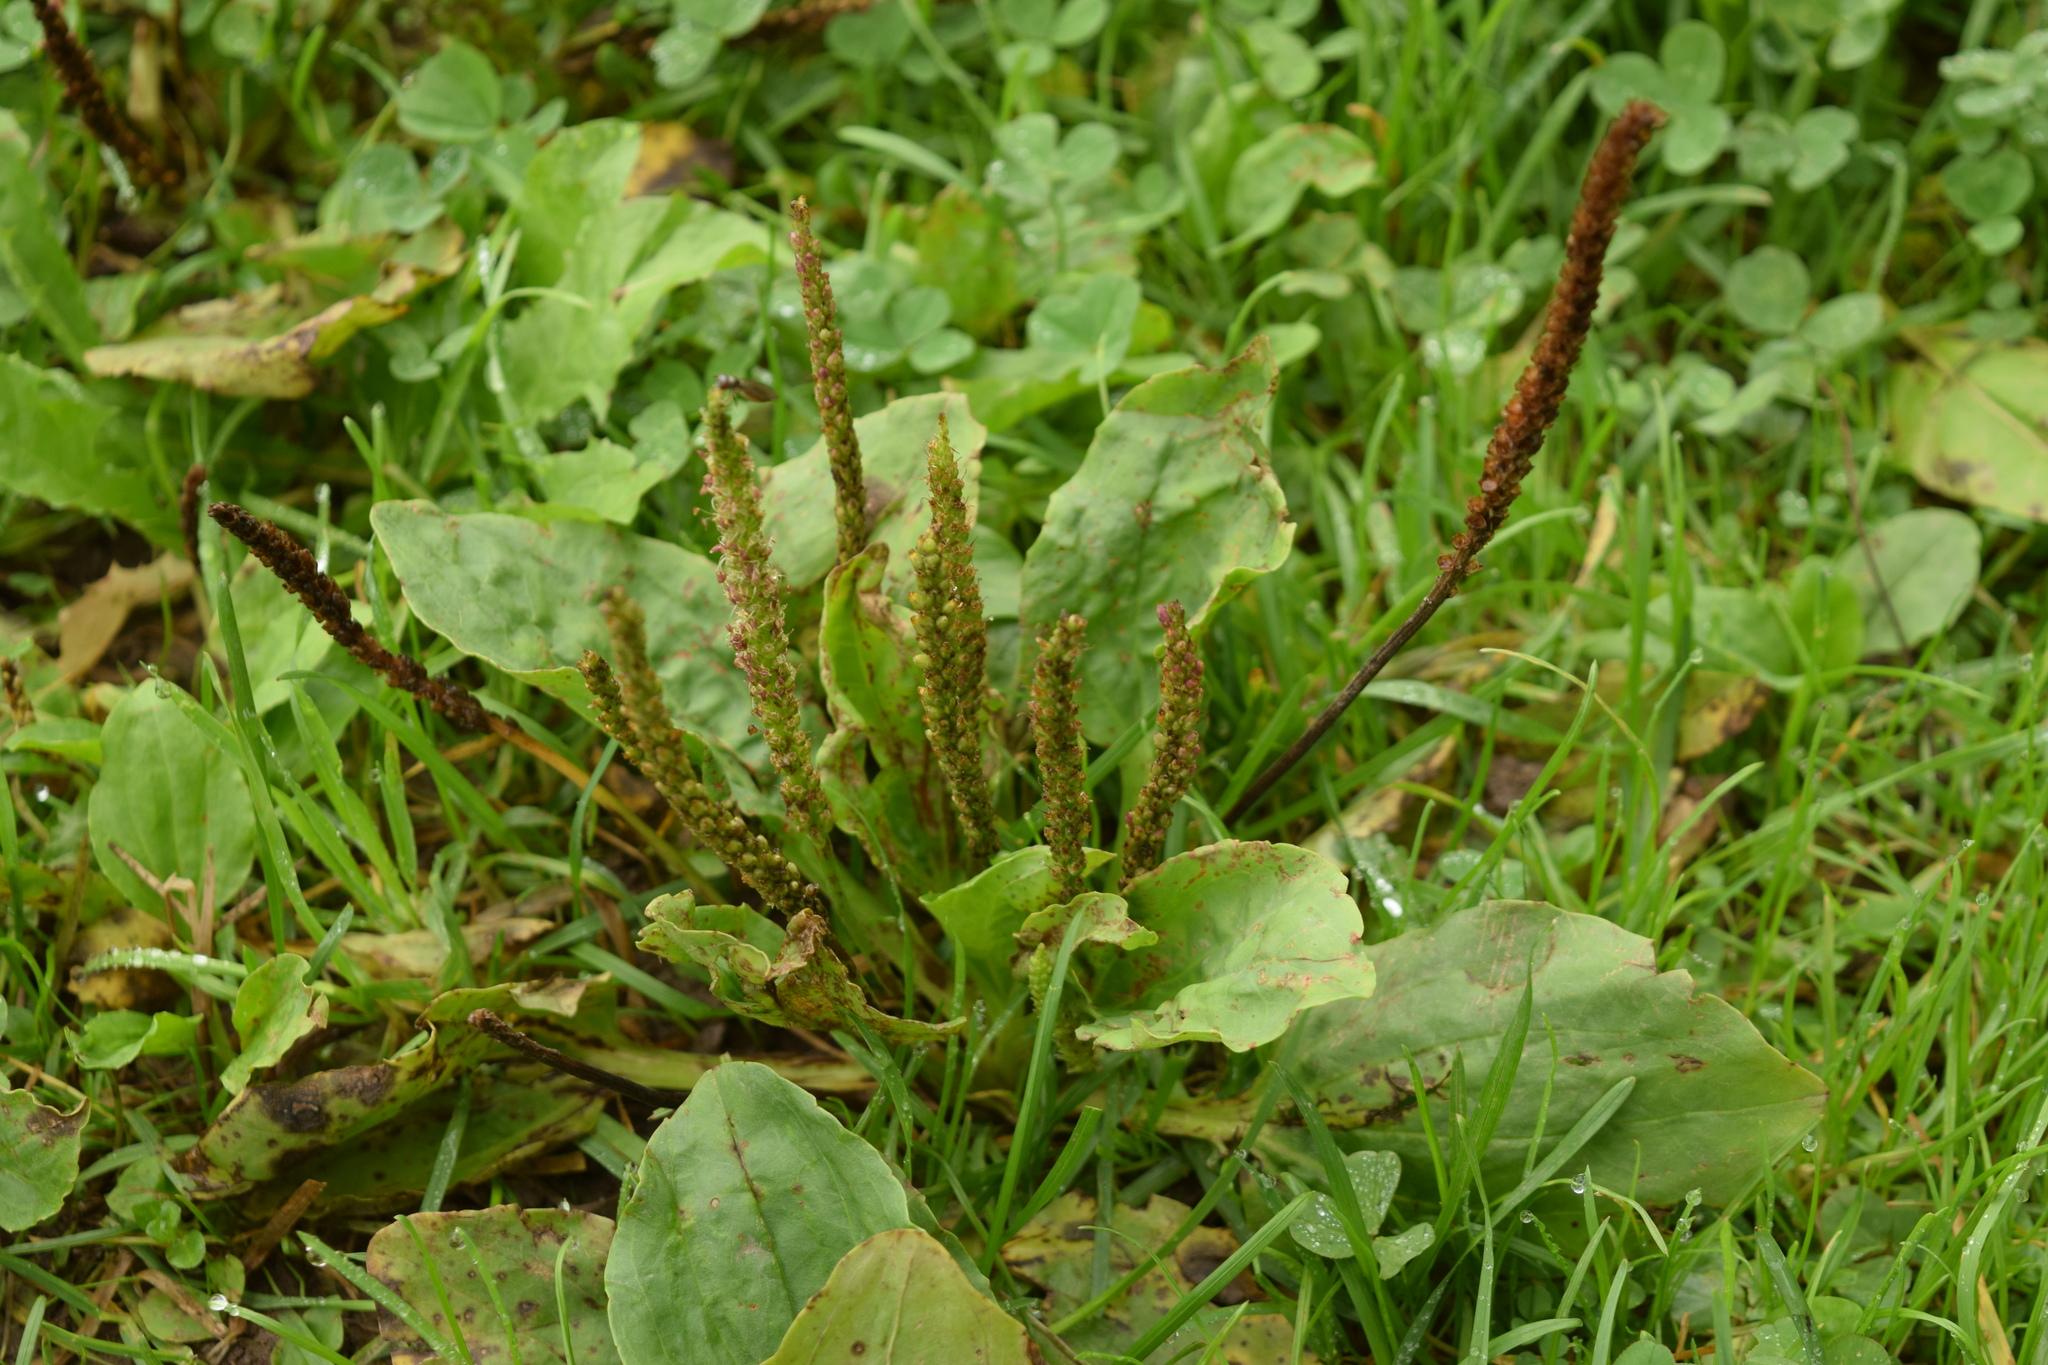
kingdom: Plantae
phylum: Tracheophyta
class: Magnoliopsida
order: Lamiales
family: Plantaginaceae
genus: Plantago
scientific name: Plantago major
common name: Common plantain
